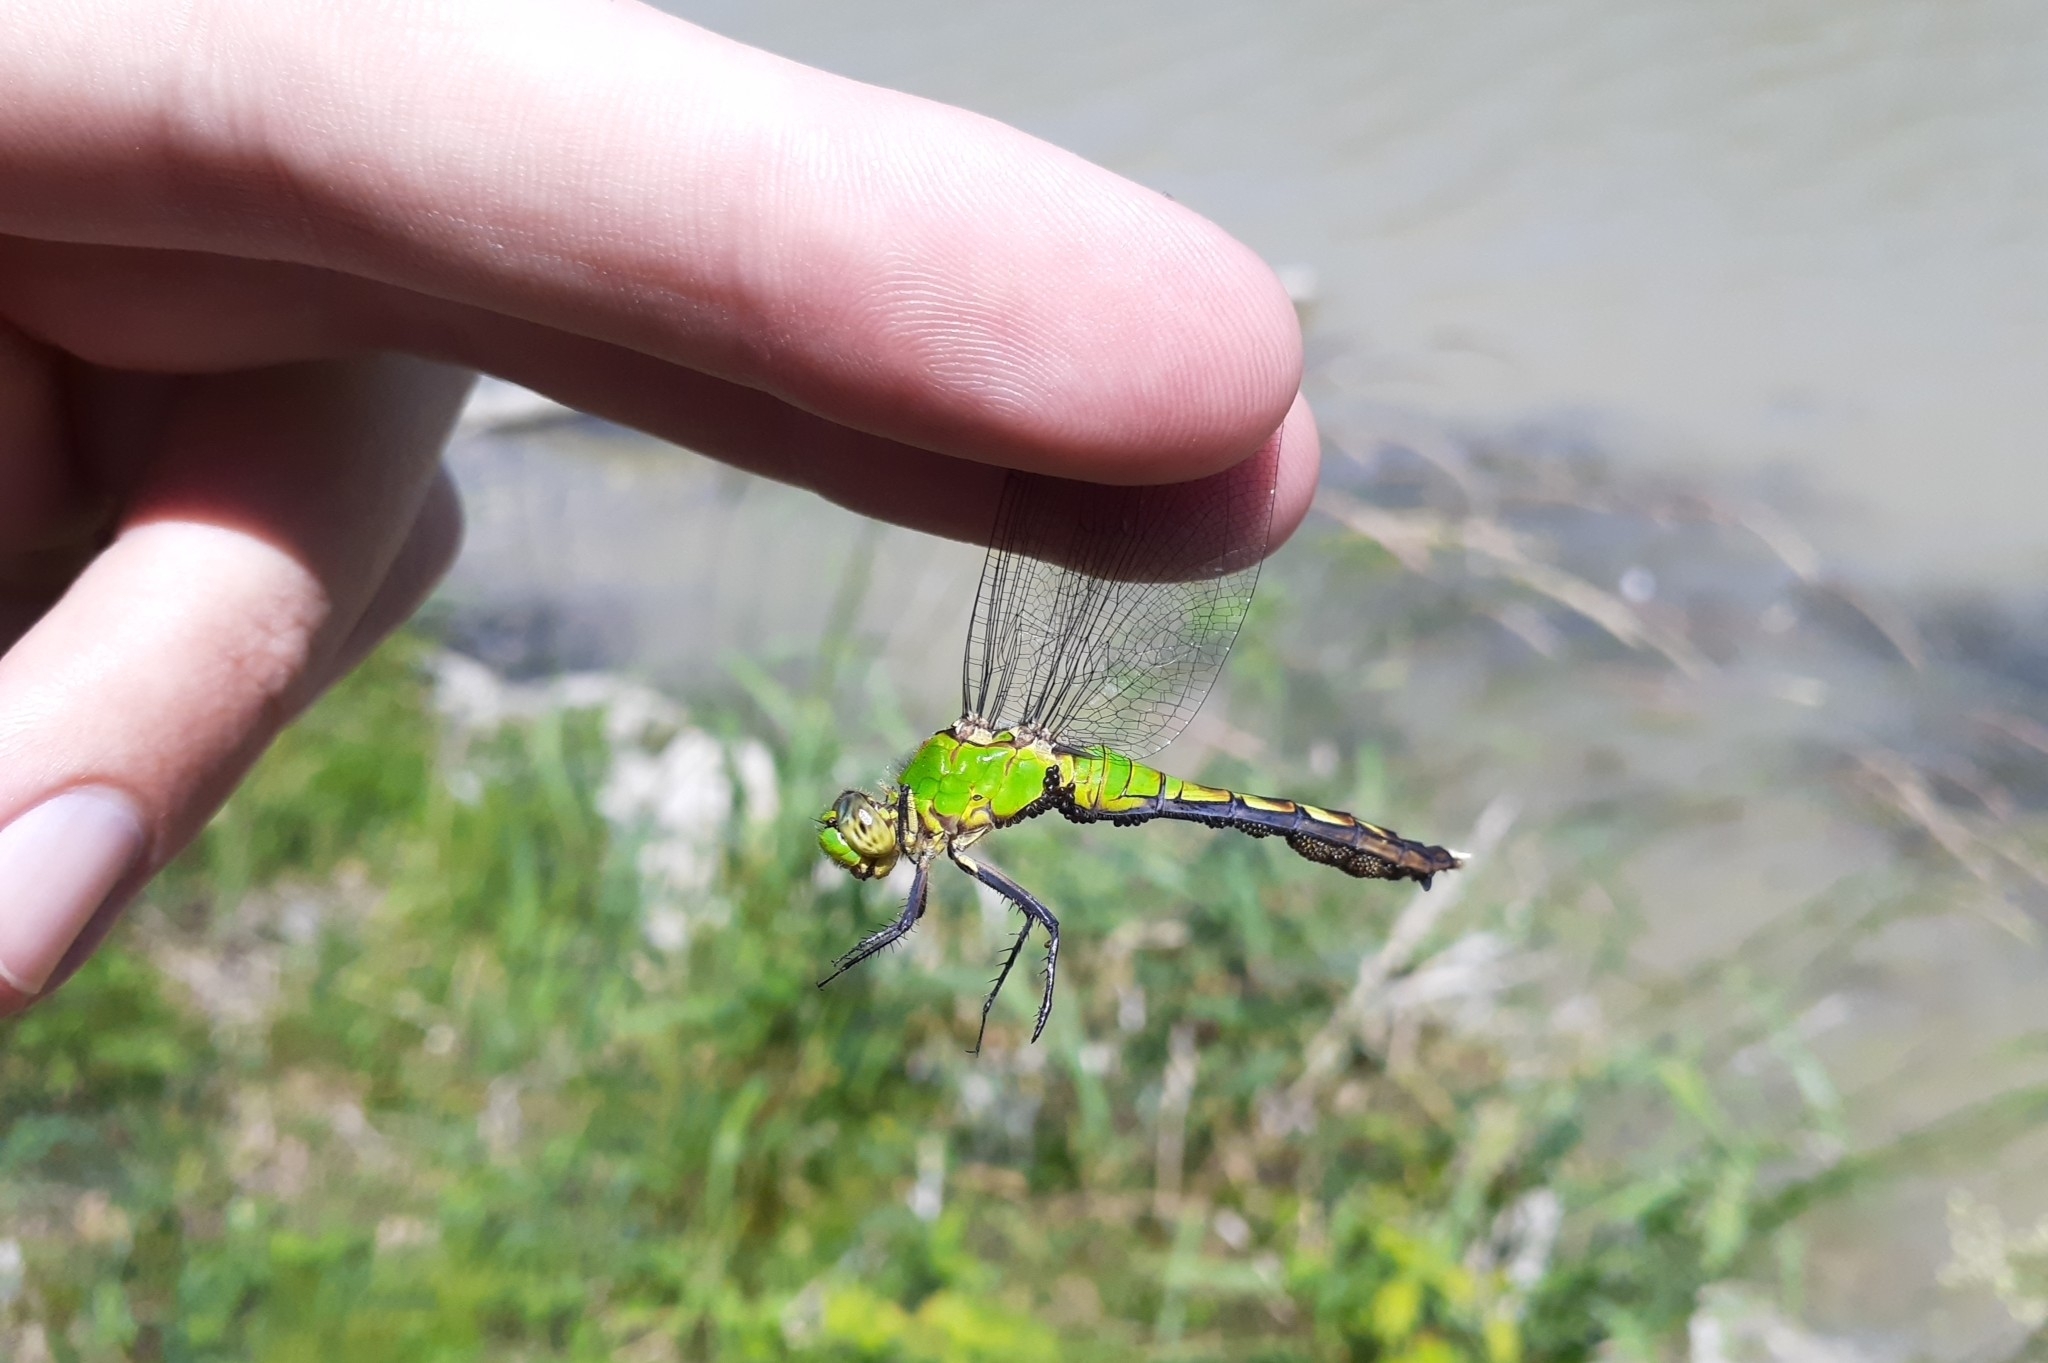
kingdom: Animalia
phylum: Arthropoda
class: Insecta
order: Odonata
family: Libellulidae
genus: Erythemis
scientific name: Erythemis simplicicollis
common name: Eastern pondhawk
